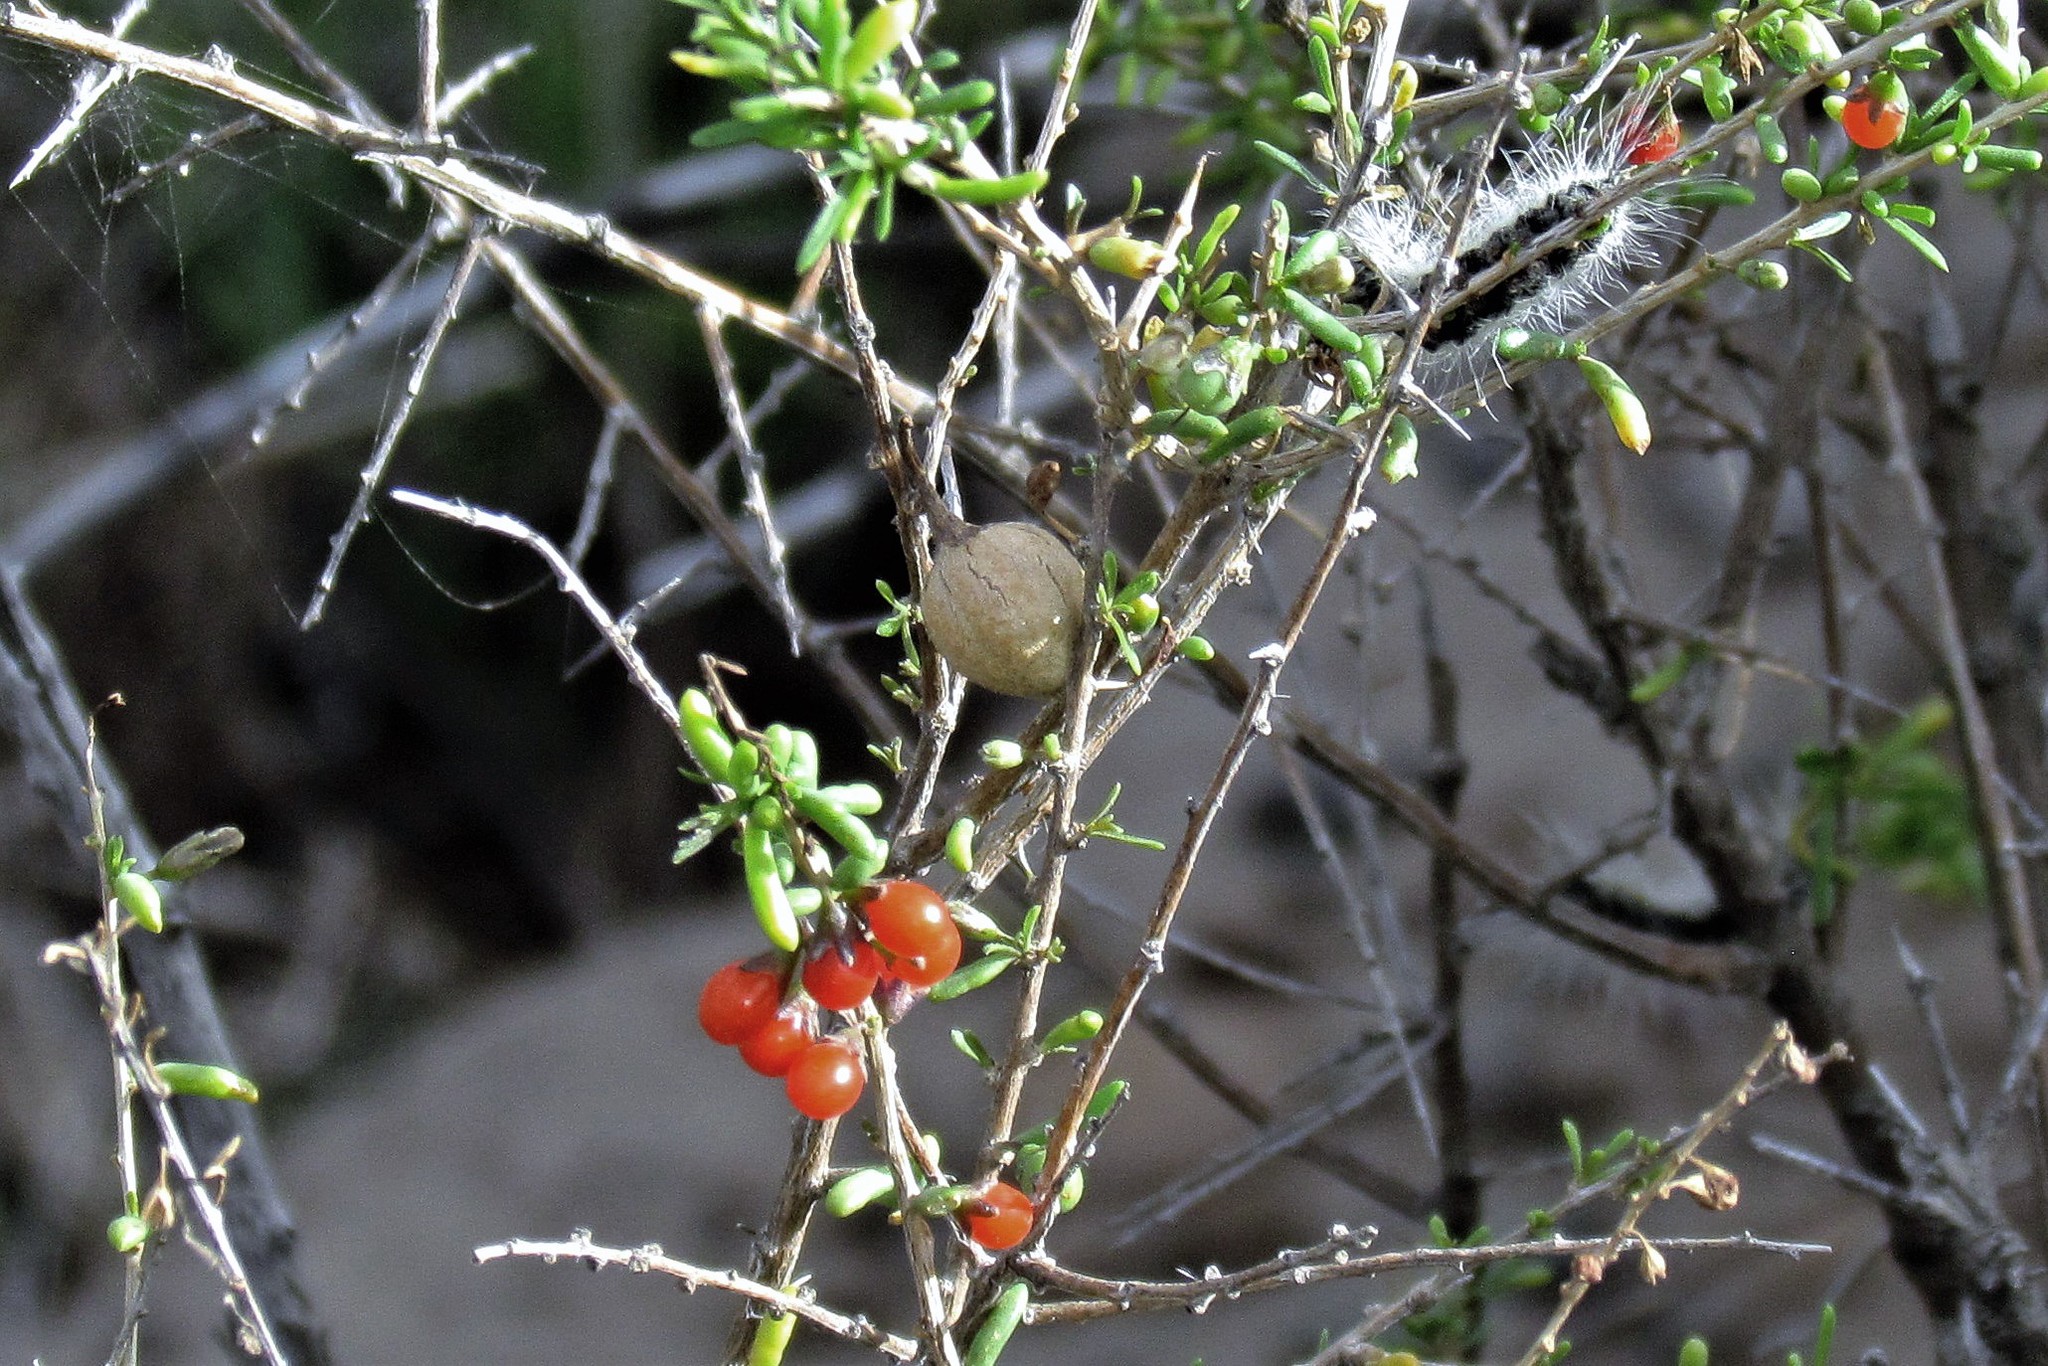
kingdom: Plantae
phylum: Tracheophyta
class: Magnoliopsida
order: Solanales
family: Solanaceae
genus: Lycium
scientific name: Lycium infaustum
